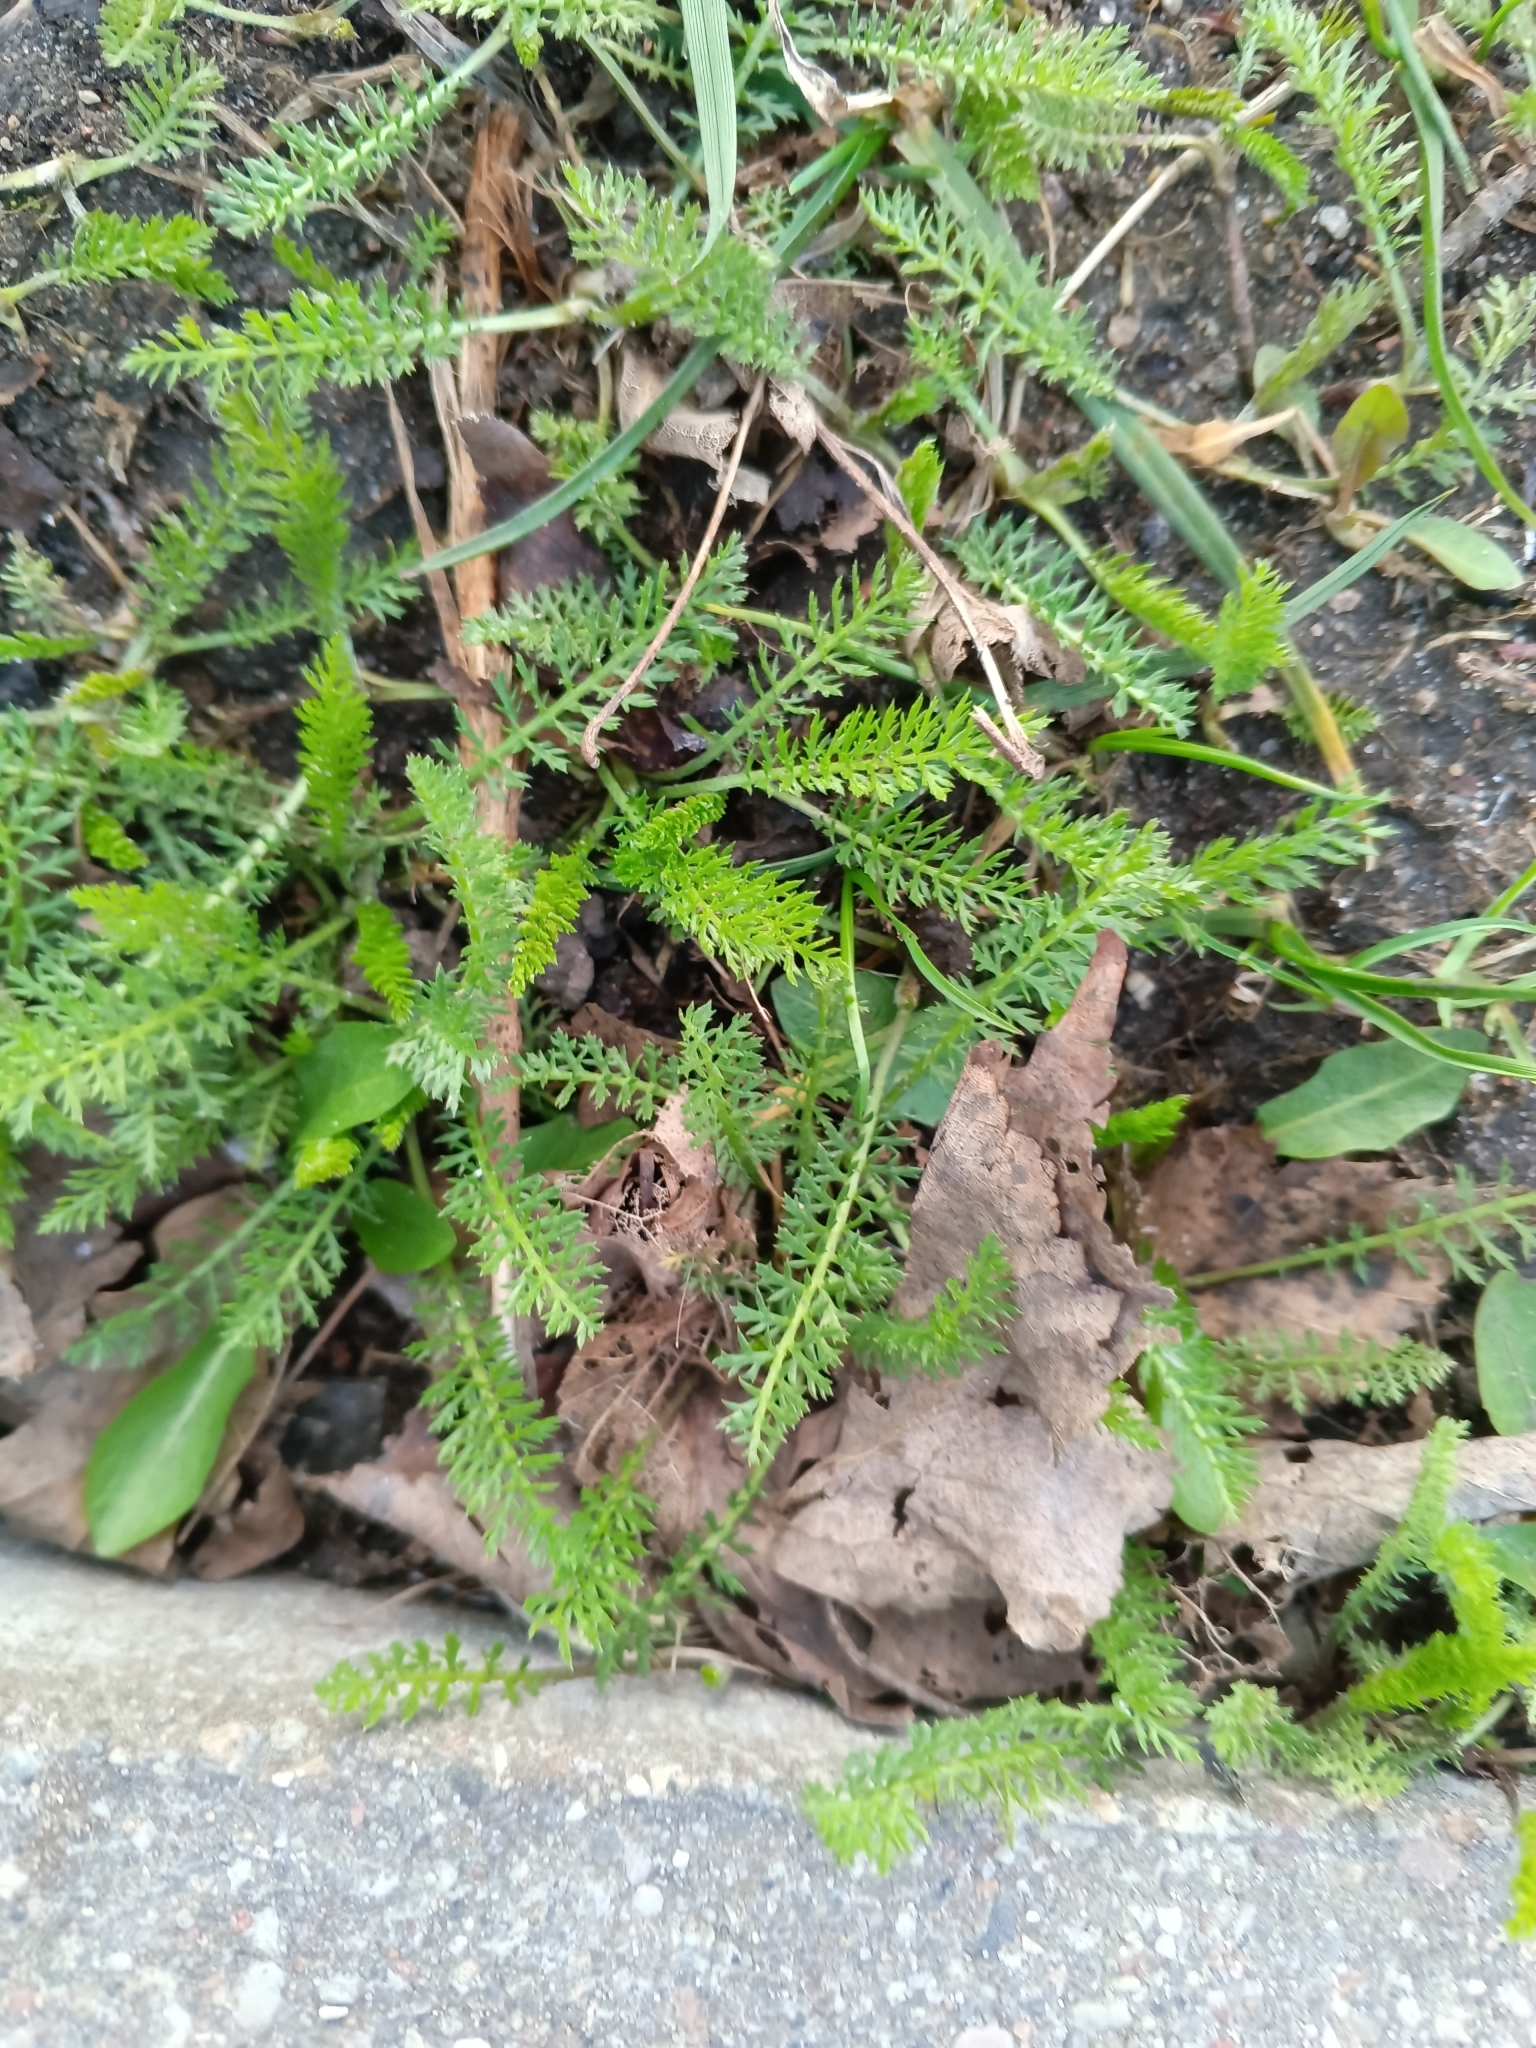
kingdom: Plantae
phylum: Tracheophyta
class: Magnoliopsida
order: Asterales
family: Asteraceae
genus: Achillea
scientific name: Achillea millefolium
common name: Yarrow
